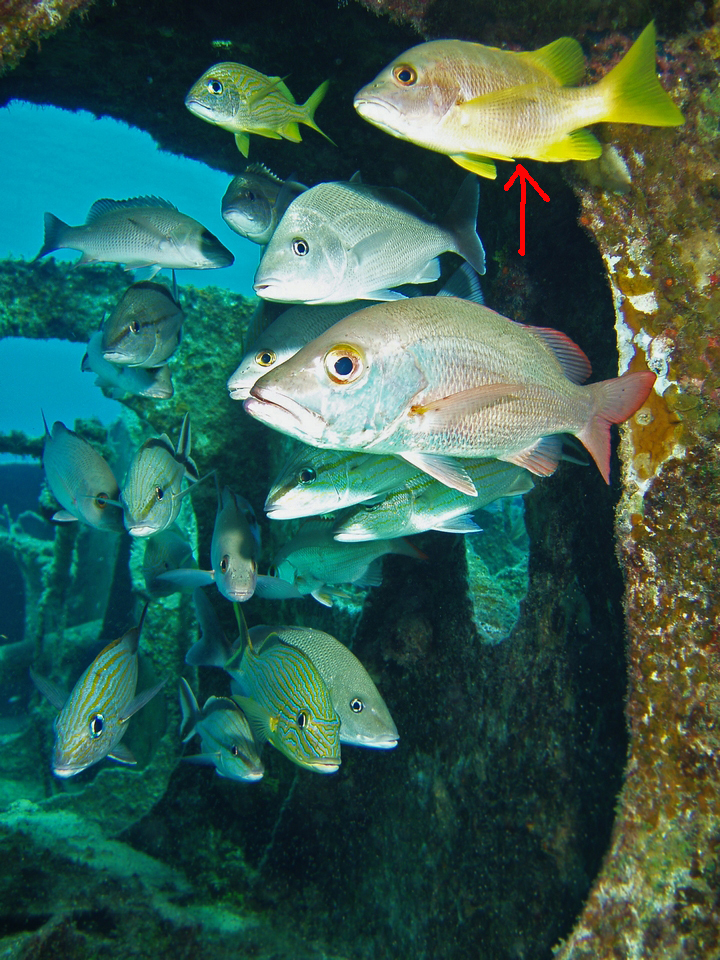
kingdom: Animalia
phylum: Chordata
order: Perciformes
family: Lutjanidae
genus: Lutjanus
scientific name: Lutjanus apodus
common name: Schoolmaster
